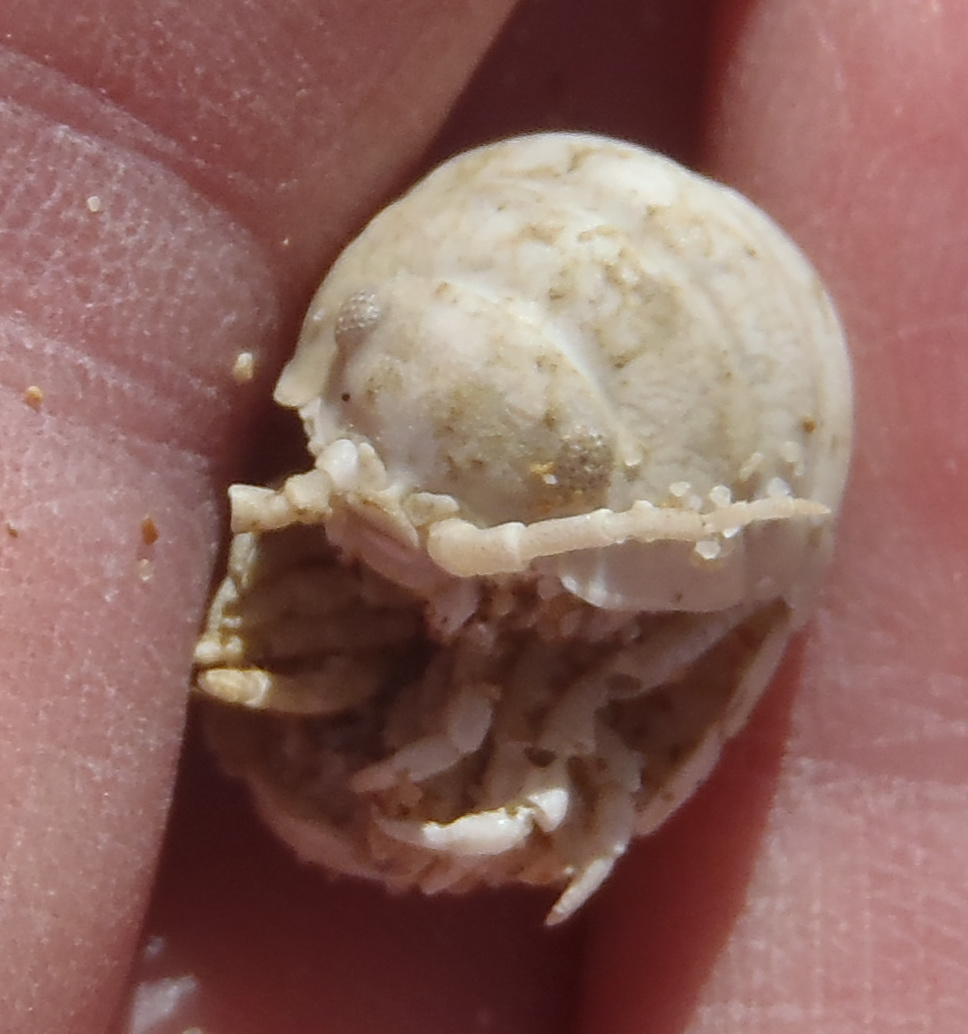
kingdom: Animalia
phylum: Arthropoda
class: Malacostraca
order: Isopoda
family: Tylidae
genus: Tylos
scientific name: Tylos capensis
